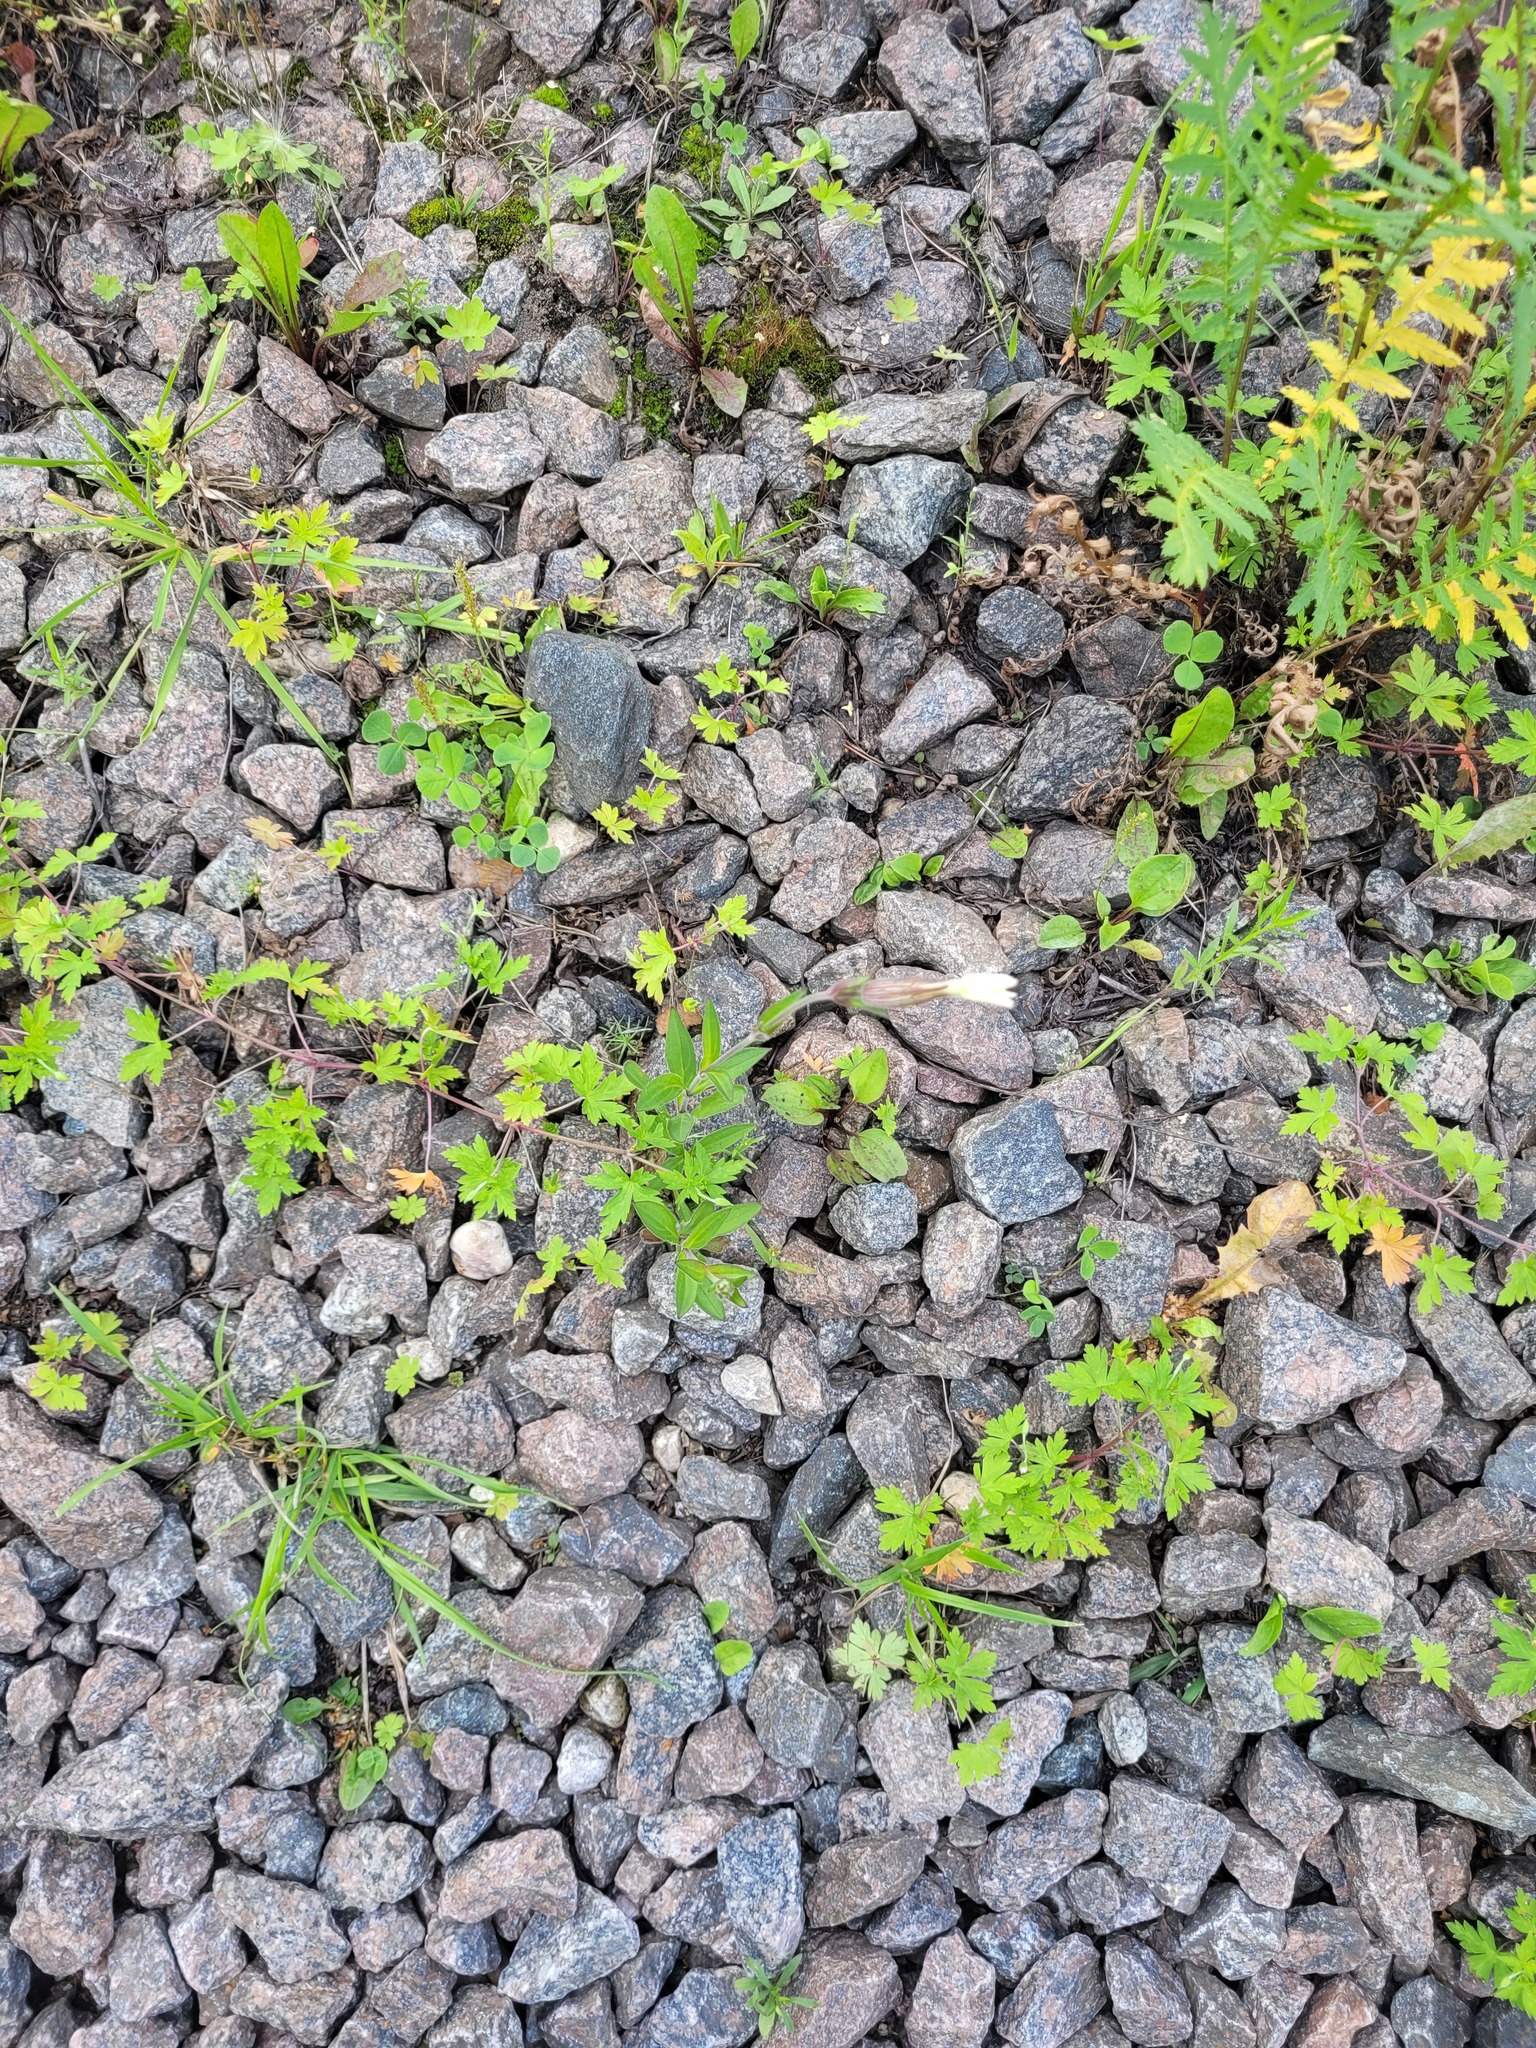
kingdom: Plantae
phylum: Tracheophyta
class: Magnoliopsida
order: Caryophyllales
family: Caryophyllaceae
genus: Silene
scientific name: Silene latifolia
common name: White campion
